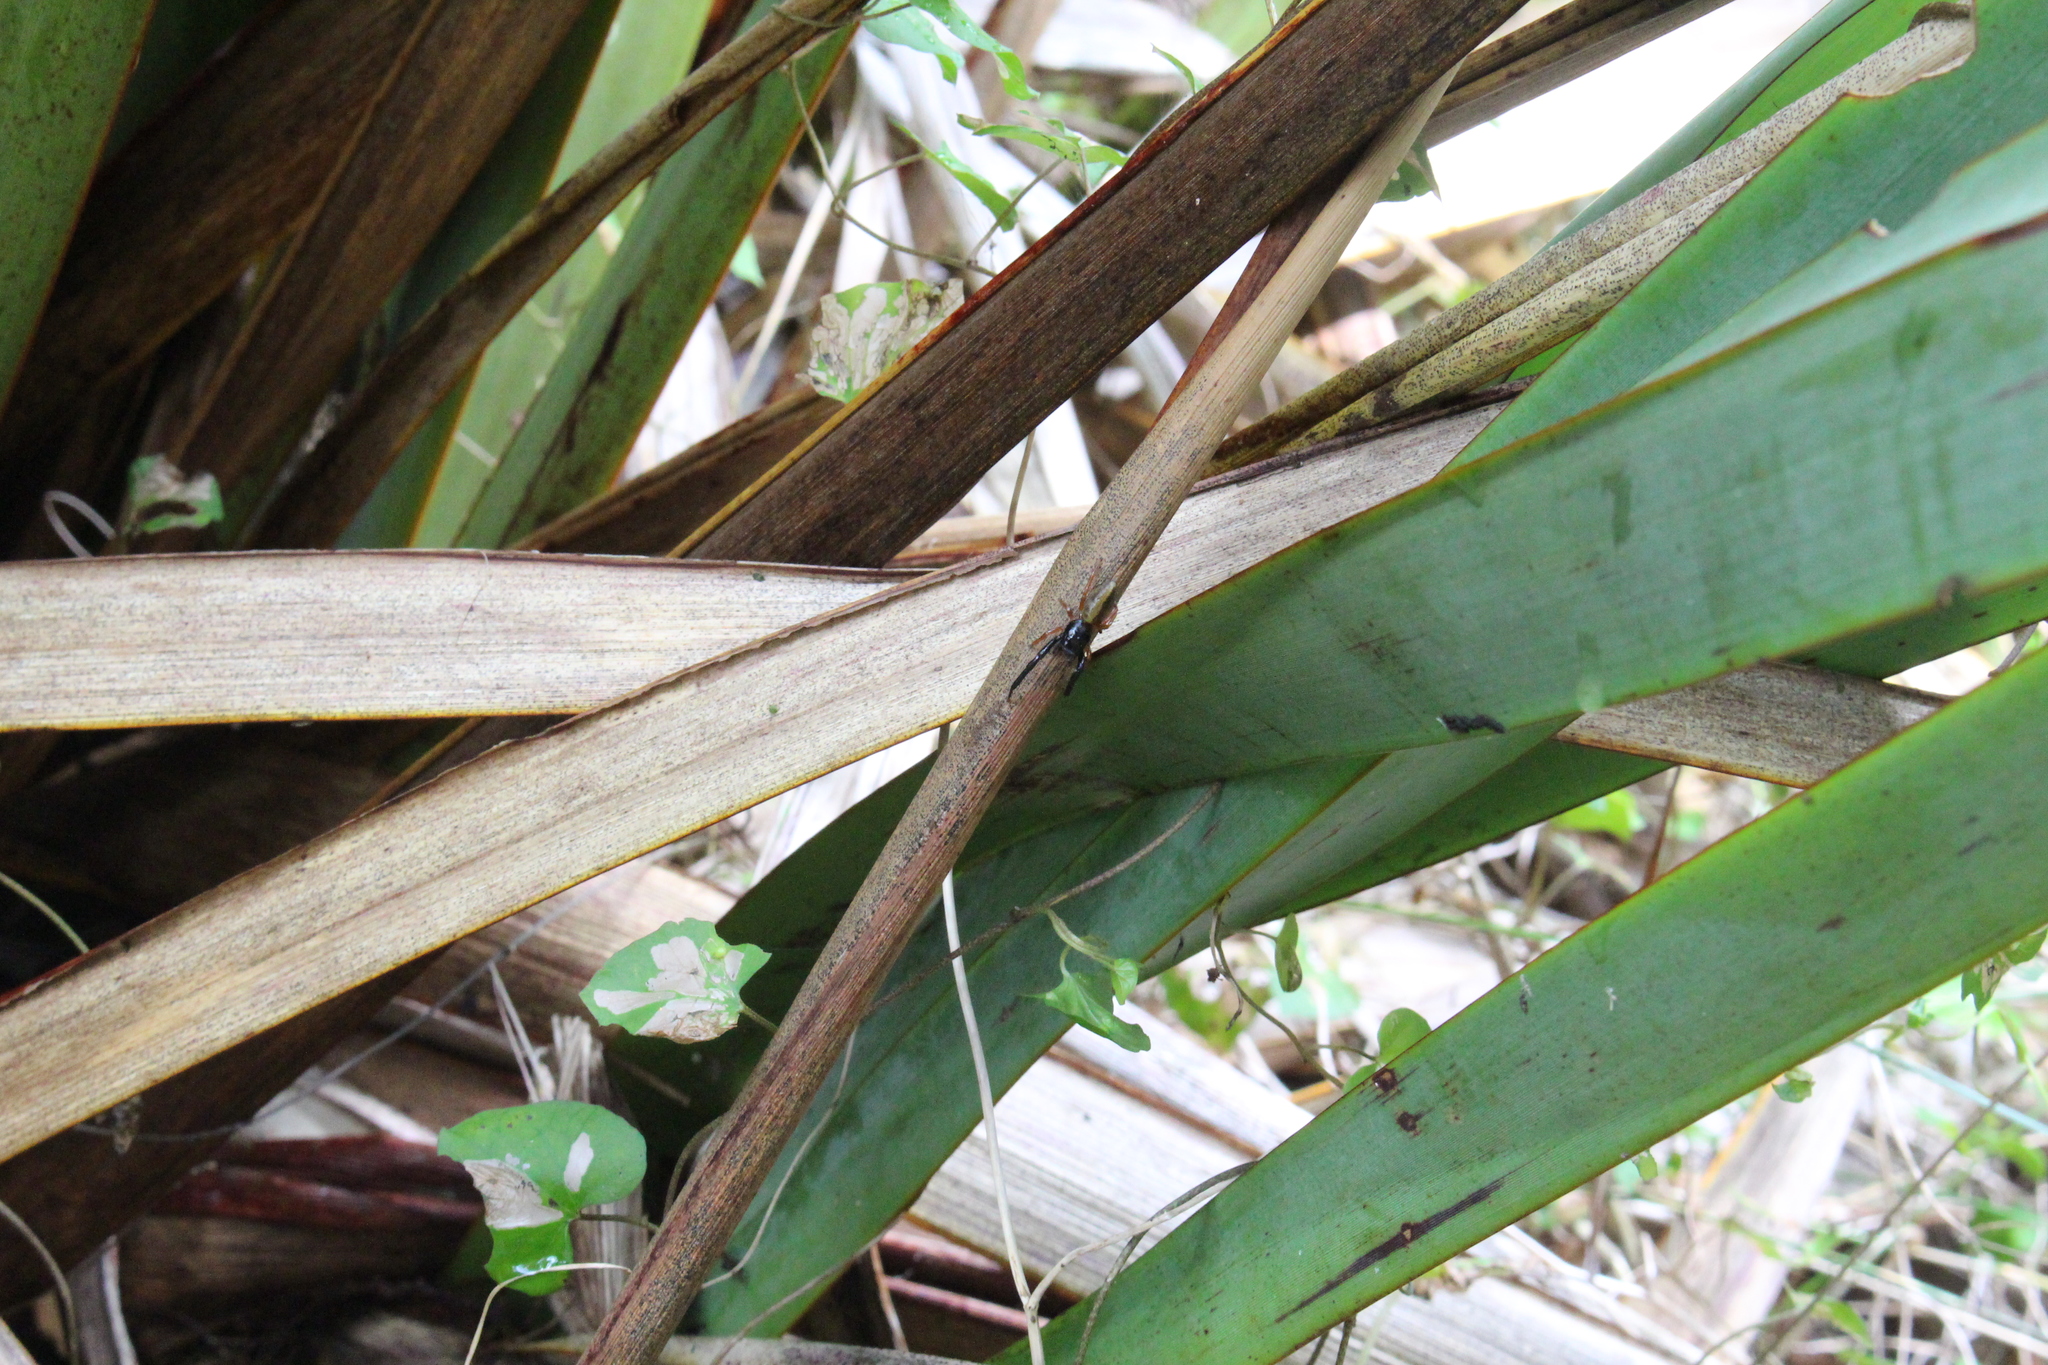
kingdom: Animalia
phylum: Arthropoda
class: Arachnida
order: Araneae
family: Salticidae
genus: Trite
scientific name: Trite planiceps
